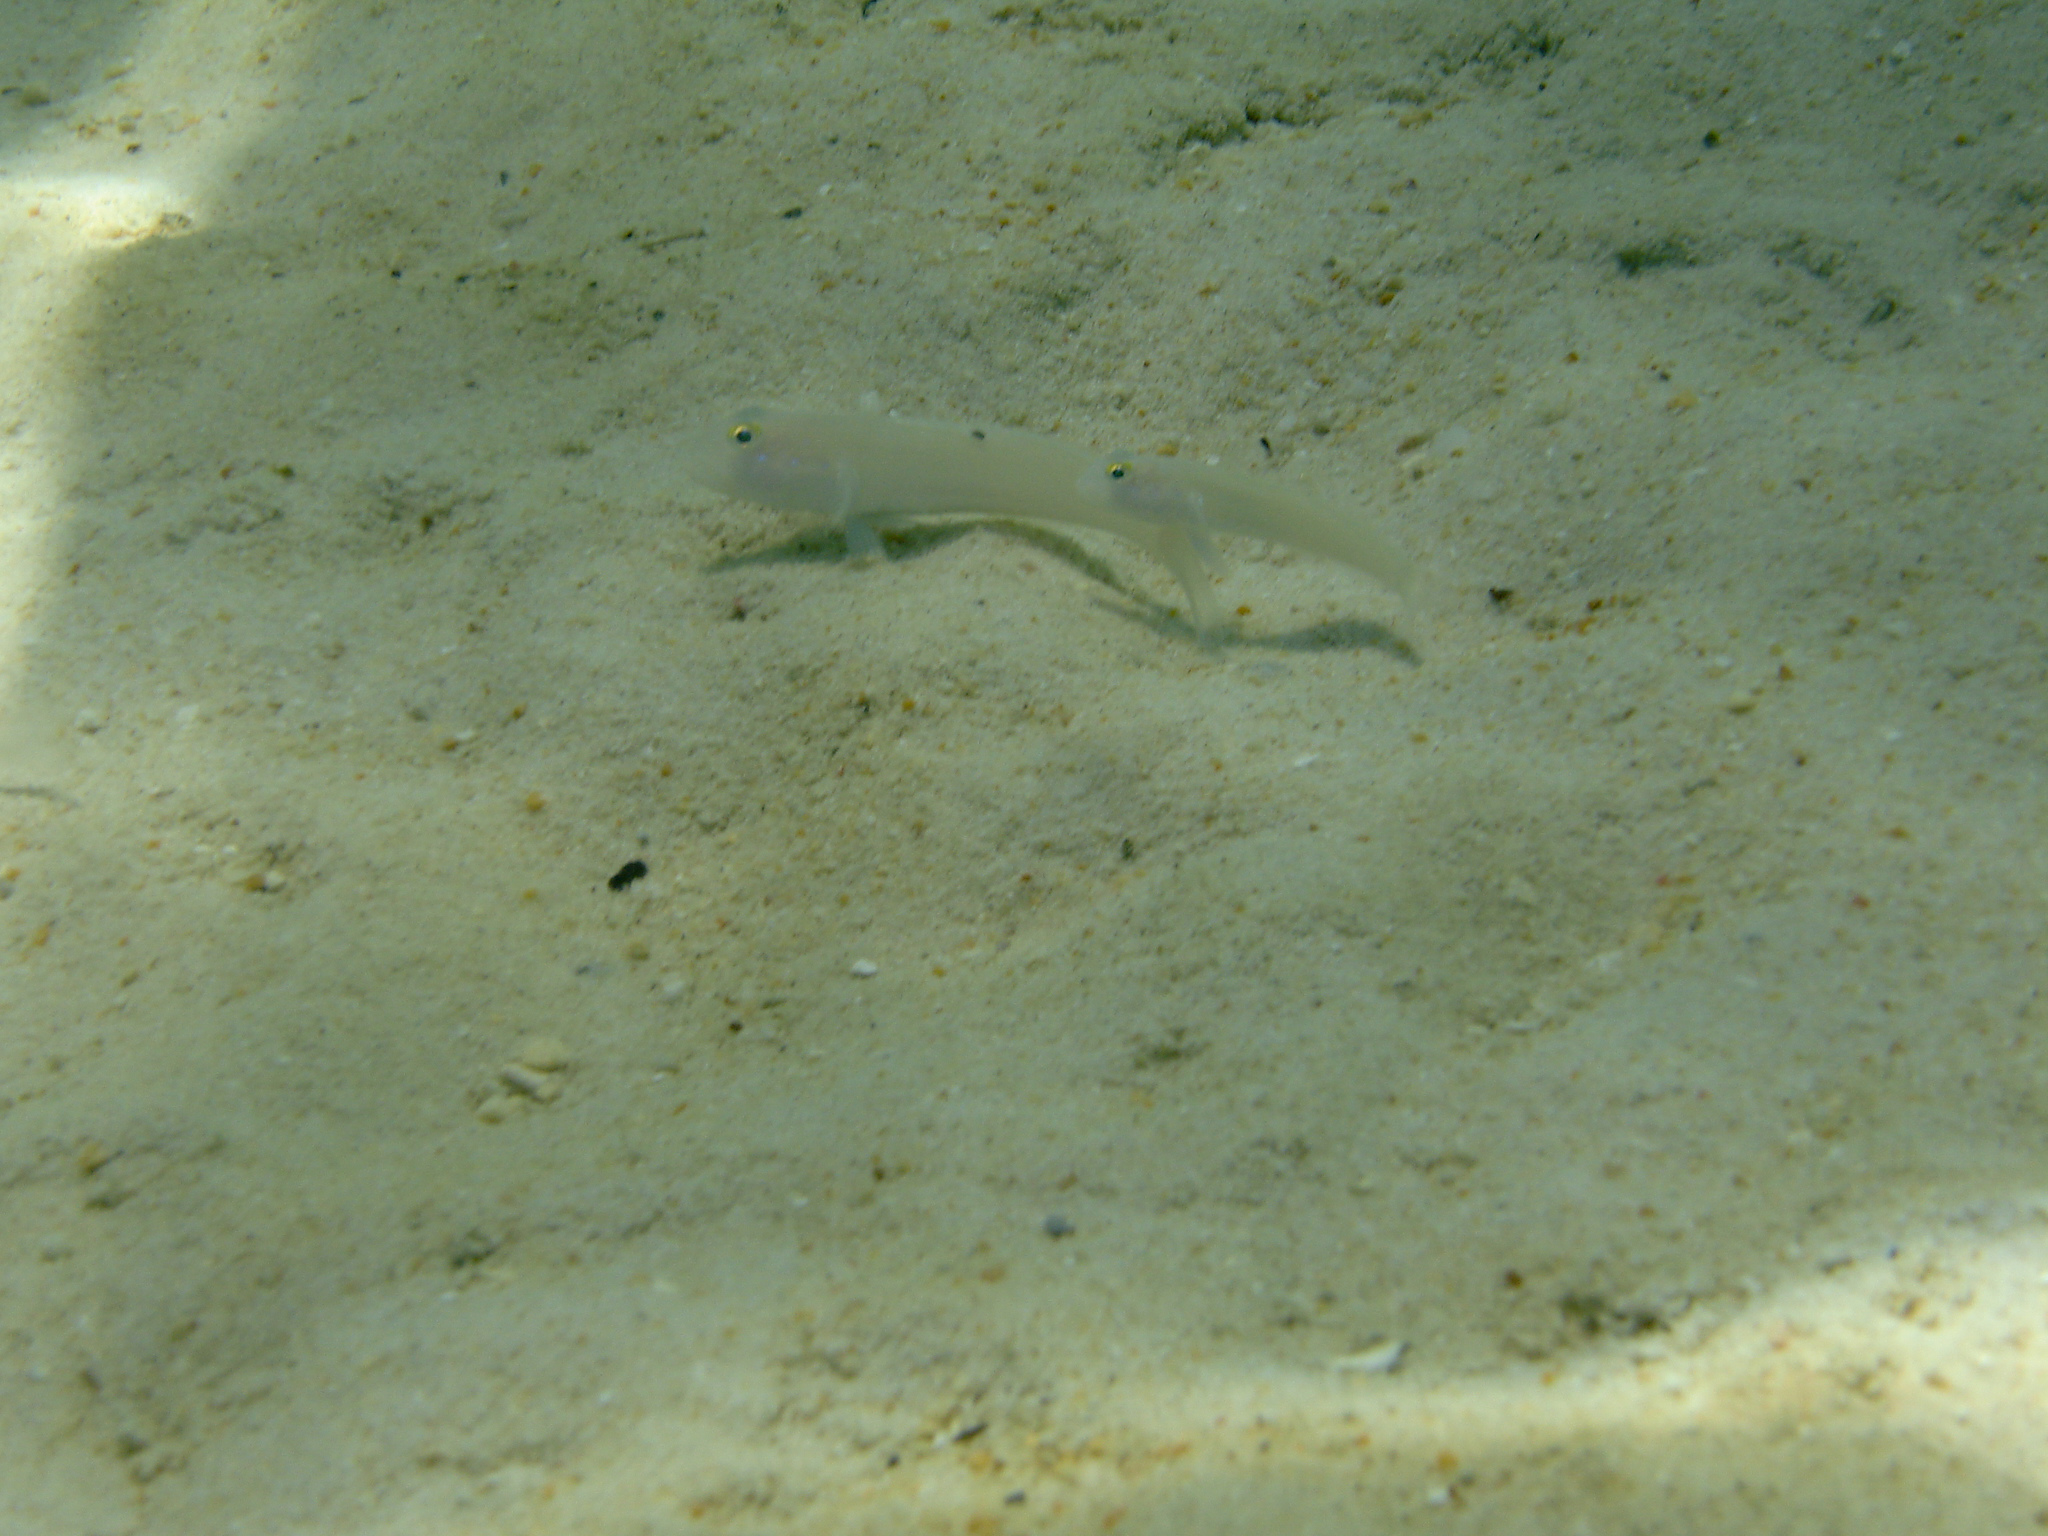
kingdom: Animalia
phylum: Chordata
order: Perciformes
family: Gobiidae
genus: Valenciennea
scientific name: Valenciennea sexguttata
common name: Sixspot goby
